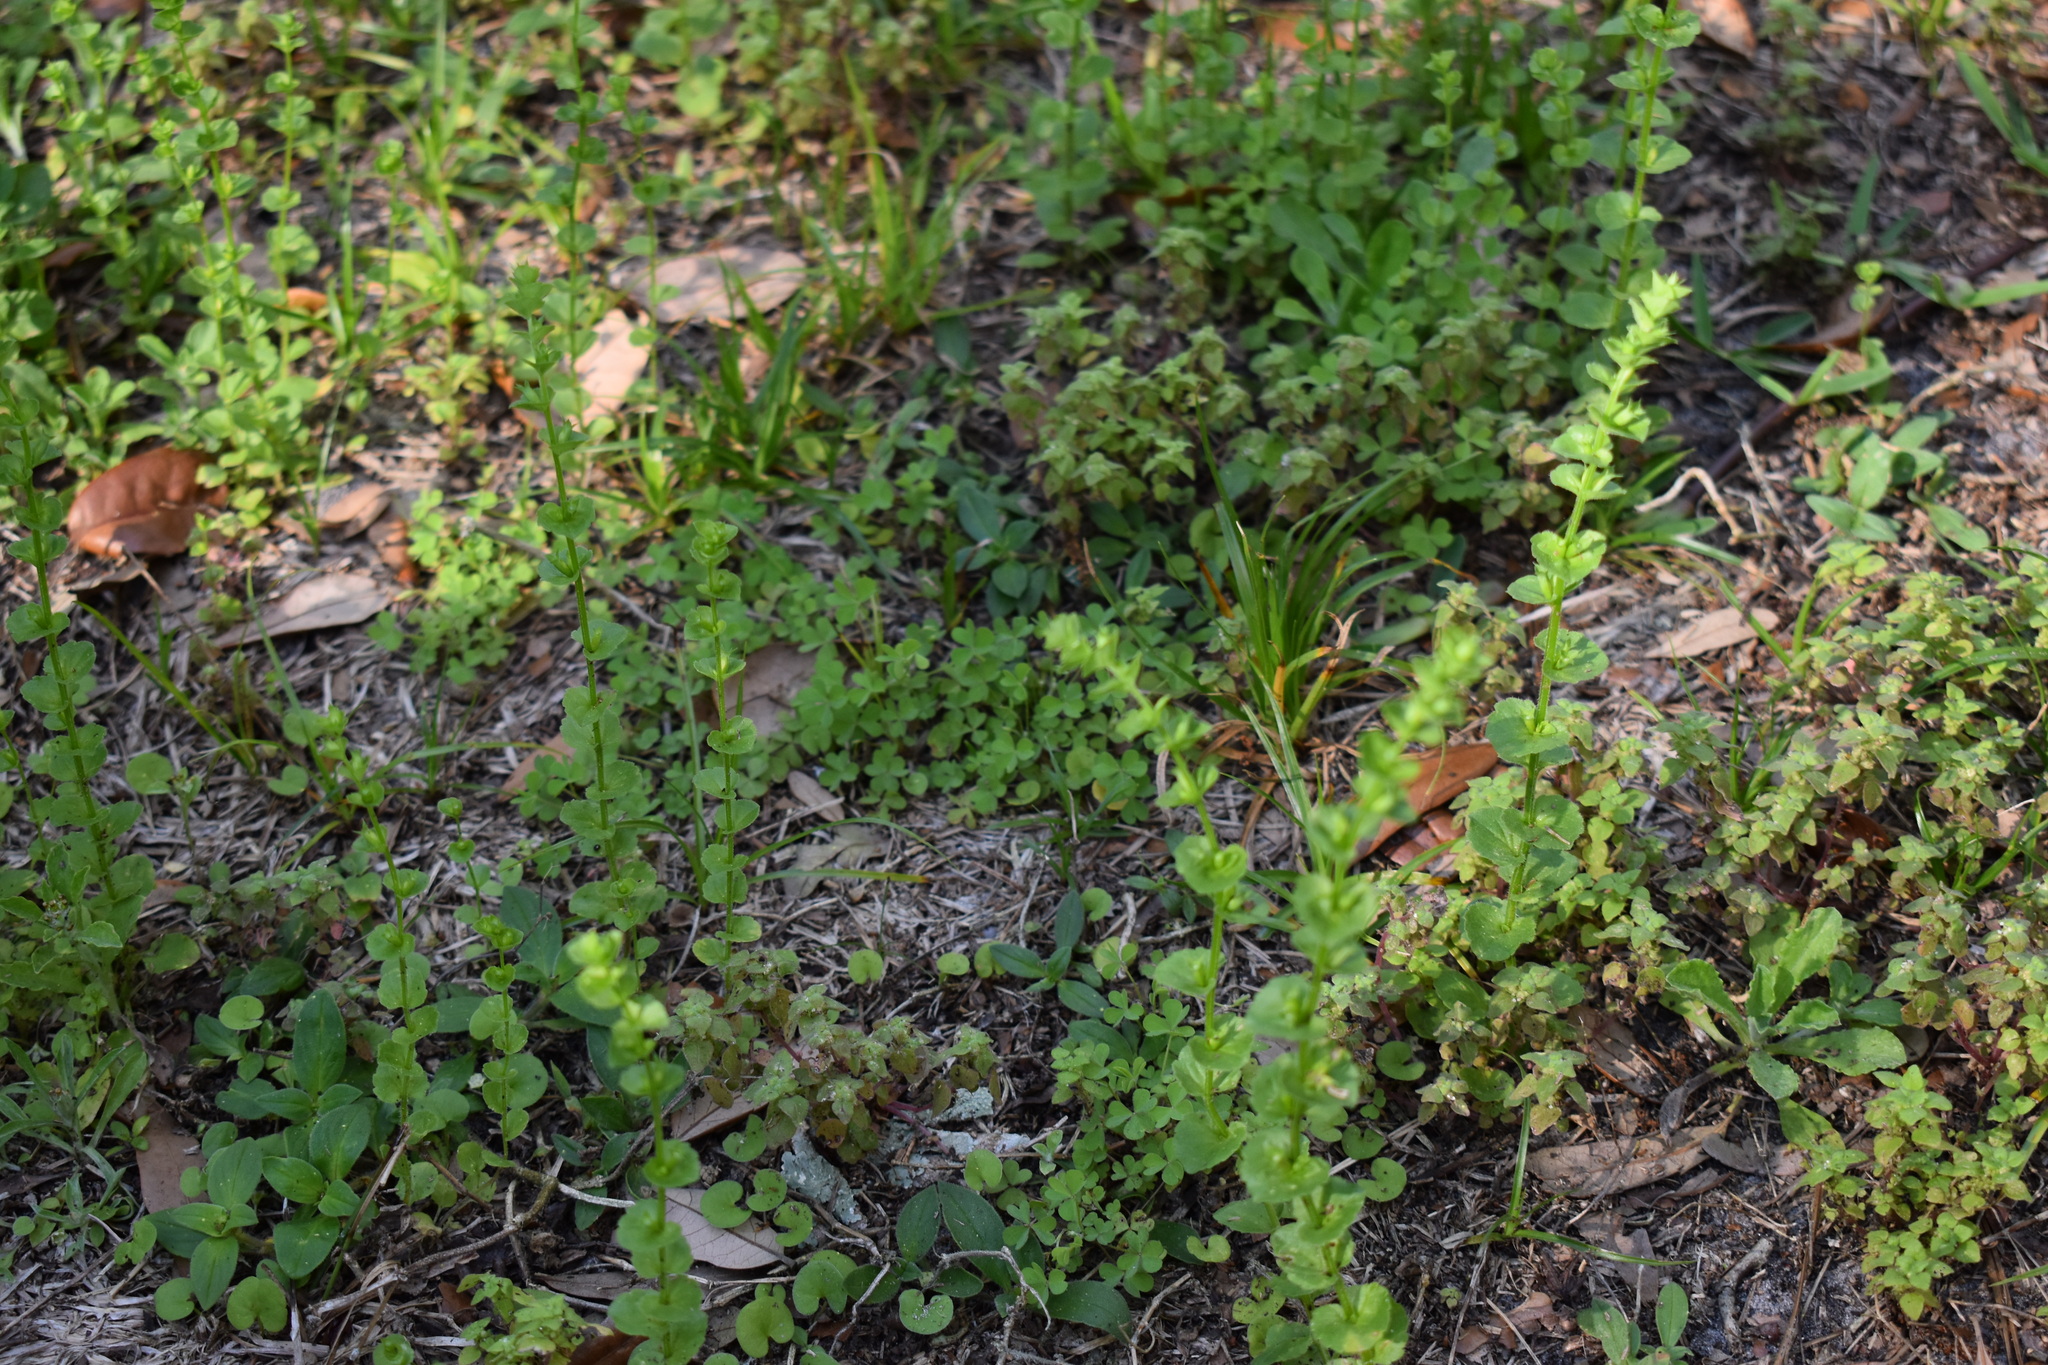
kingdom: Plantae
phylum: Tracheophyta
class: Magnoliopsida
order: Asterales
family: Campanulaceae
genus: Triodanis
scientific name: Triodanis perfoliata
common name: Clasping venus' looking-glass
